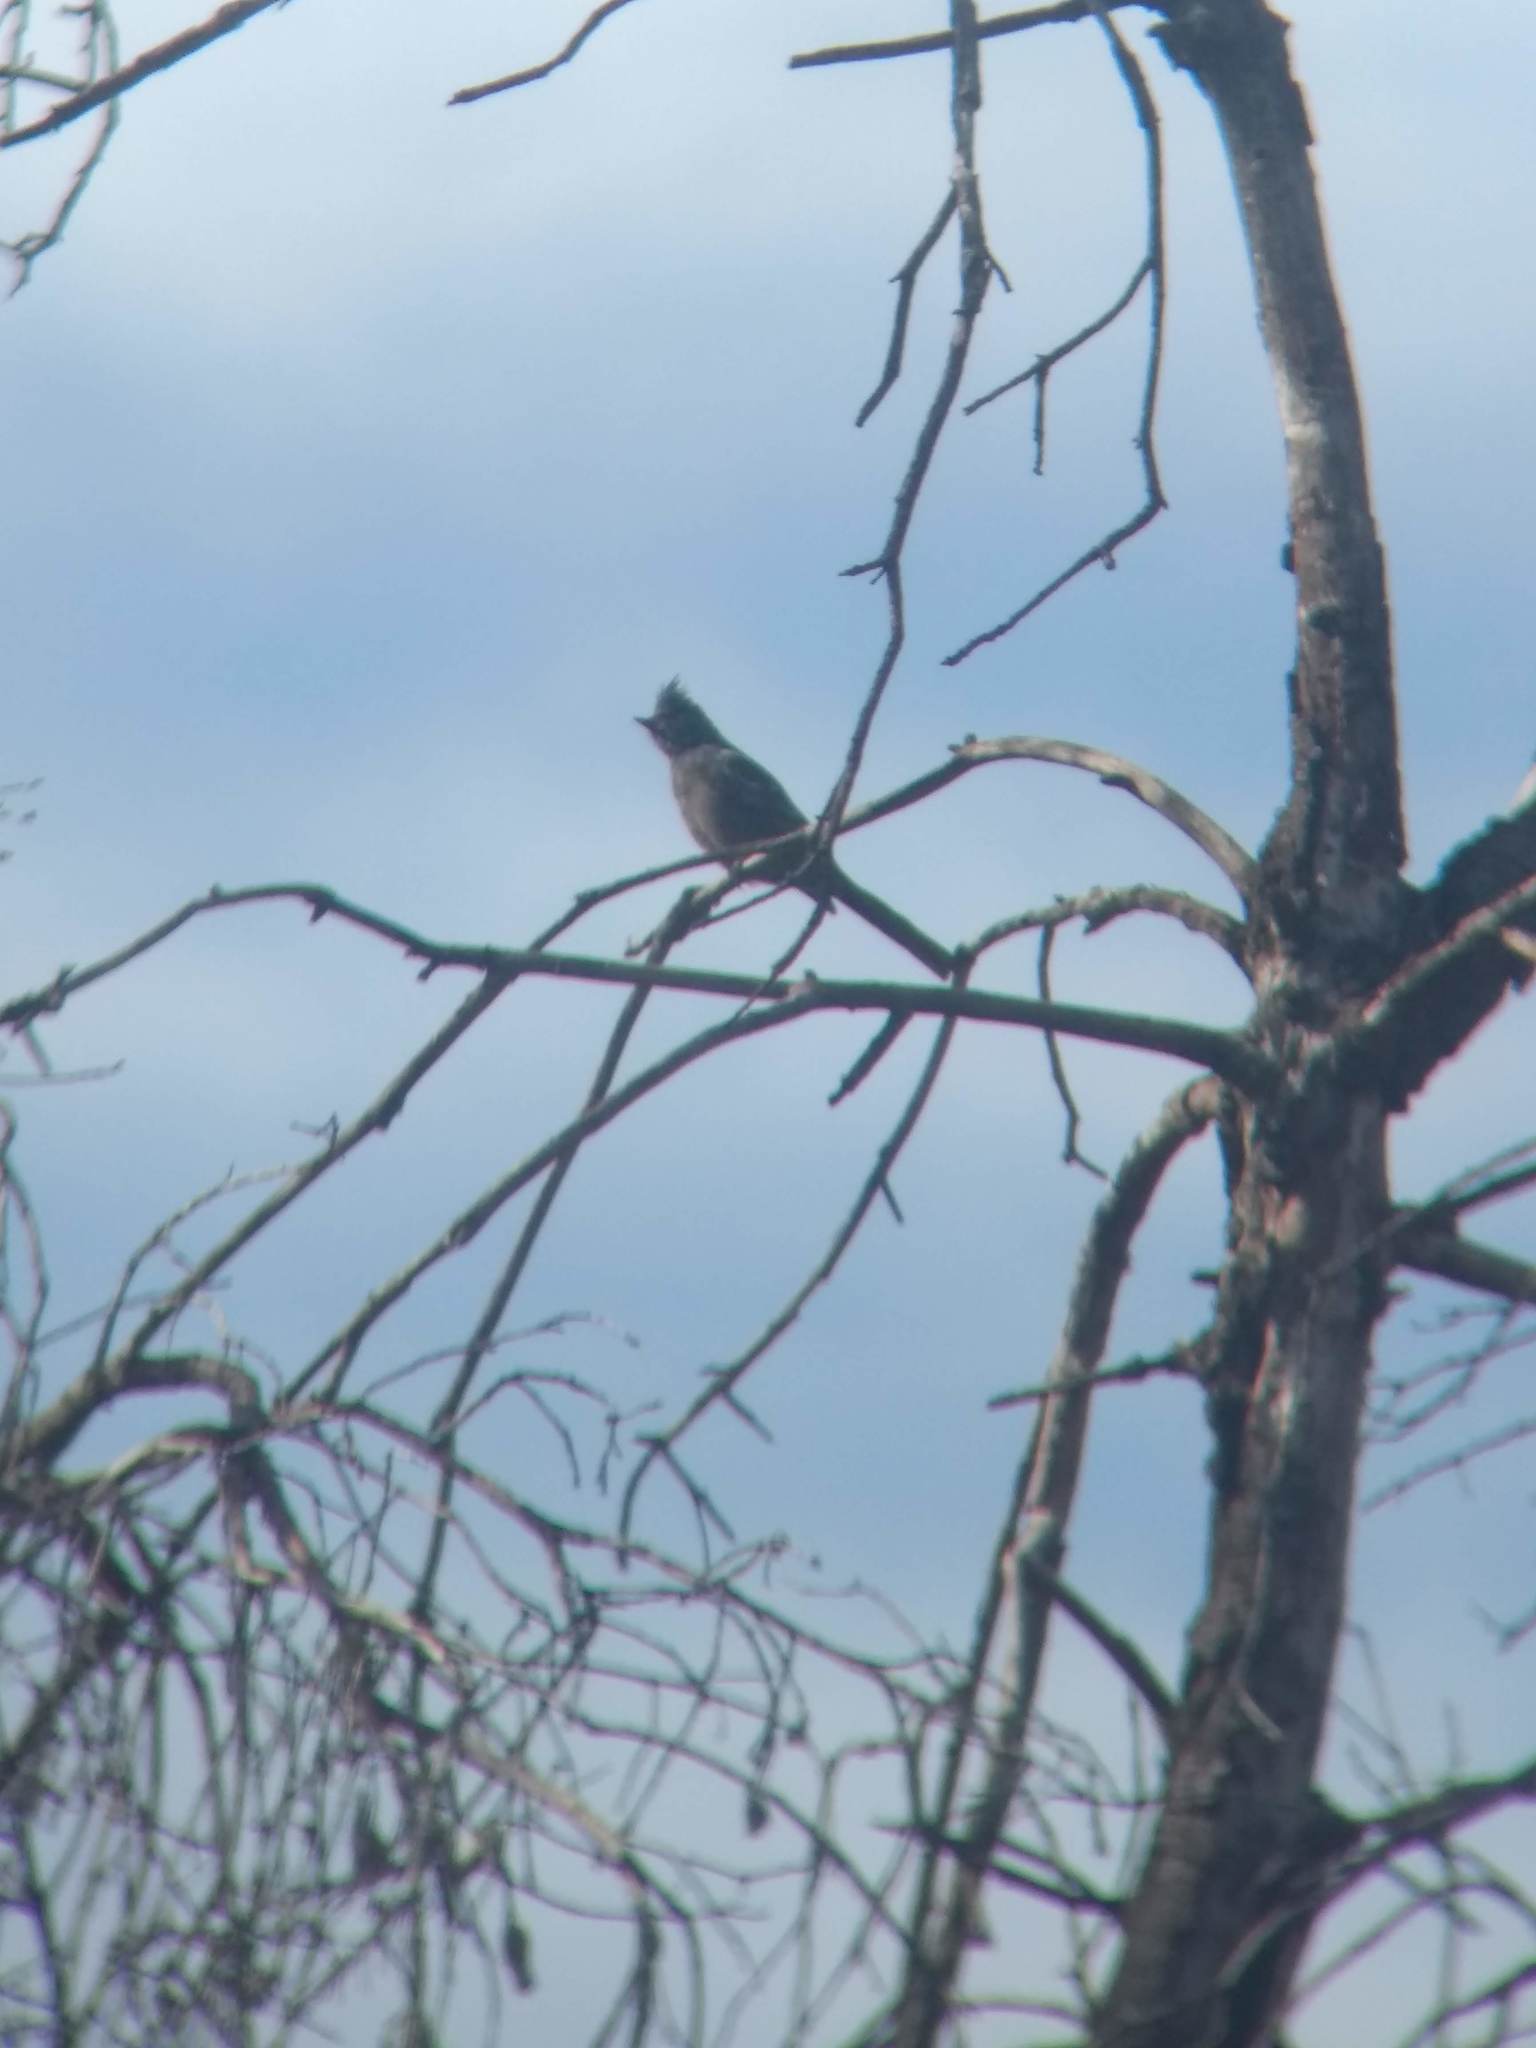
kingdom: Animalia
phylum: Chordata
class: Aves
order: Passeriformes
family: Ptilogonatidae
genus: Phainopepla
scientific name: Phainopepla nitens
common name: Phainopepla
